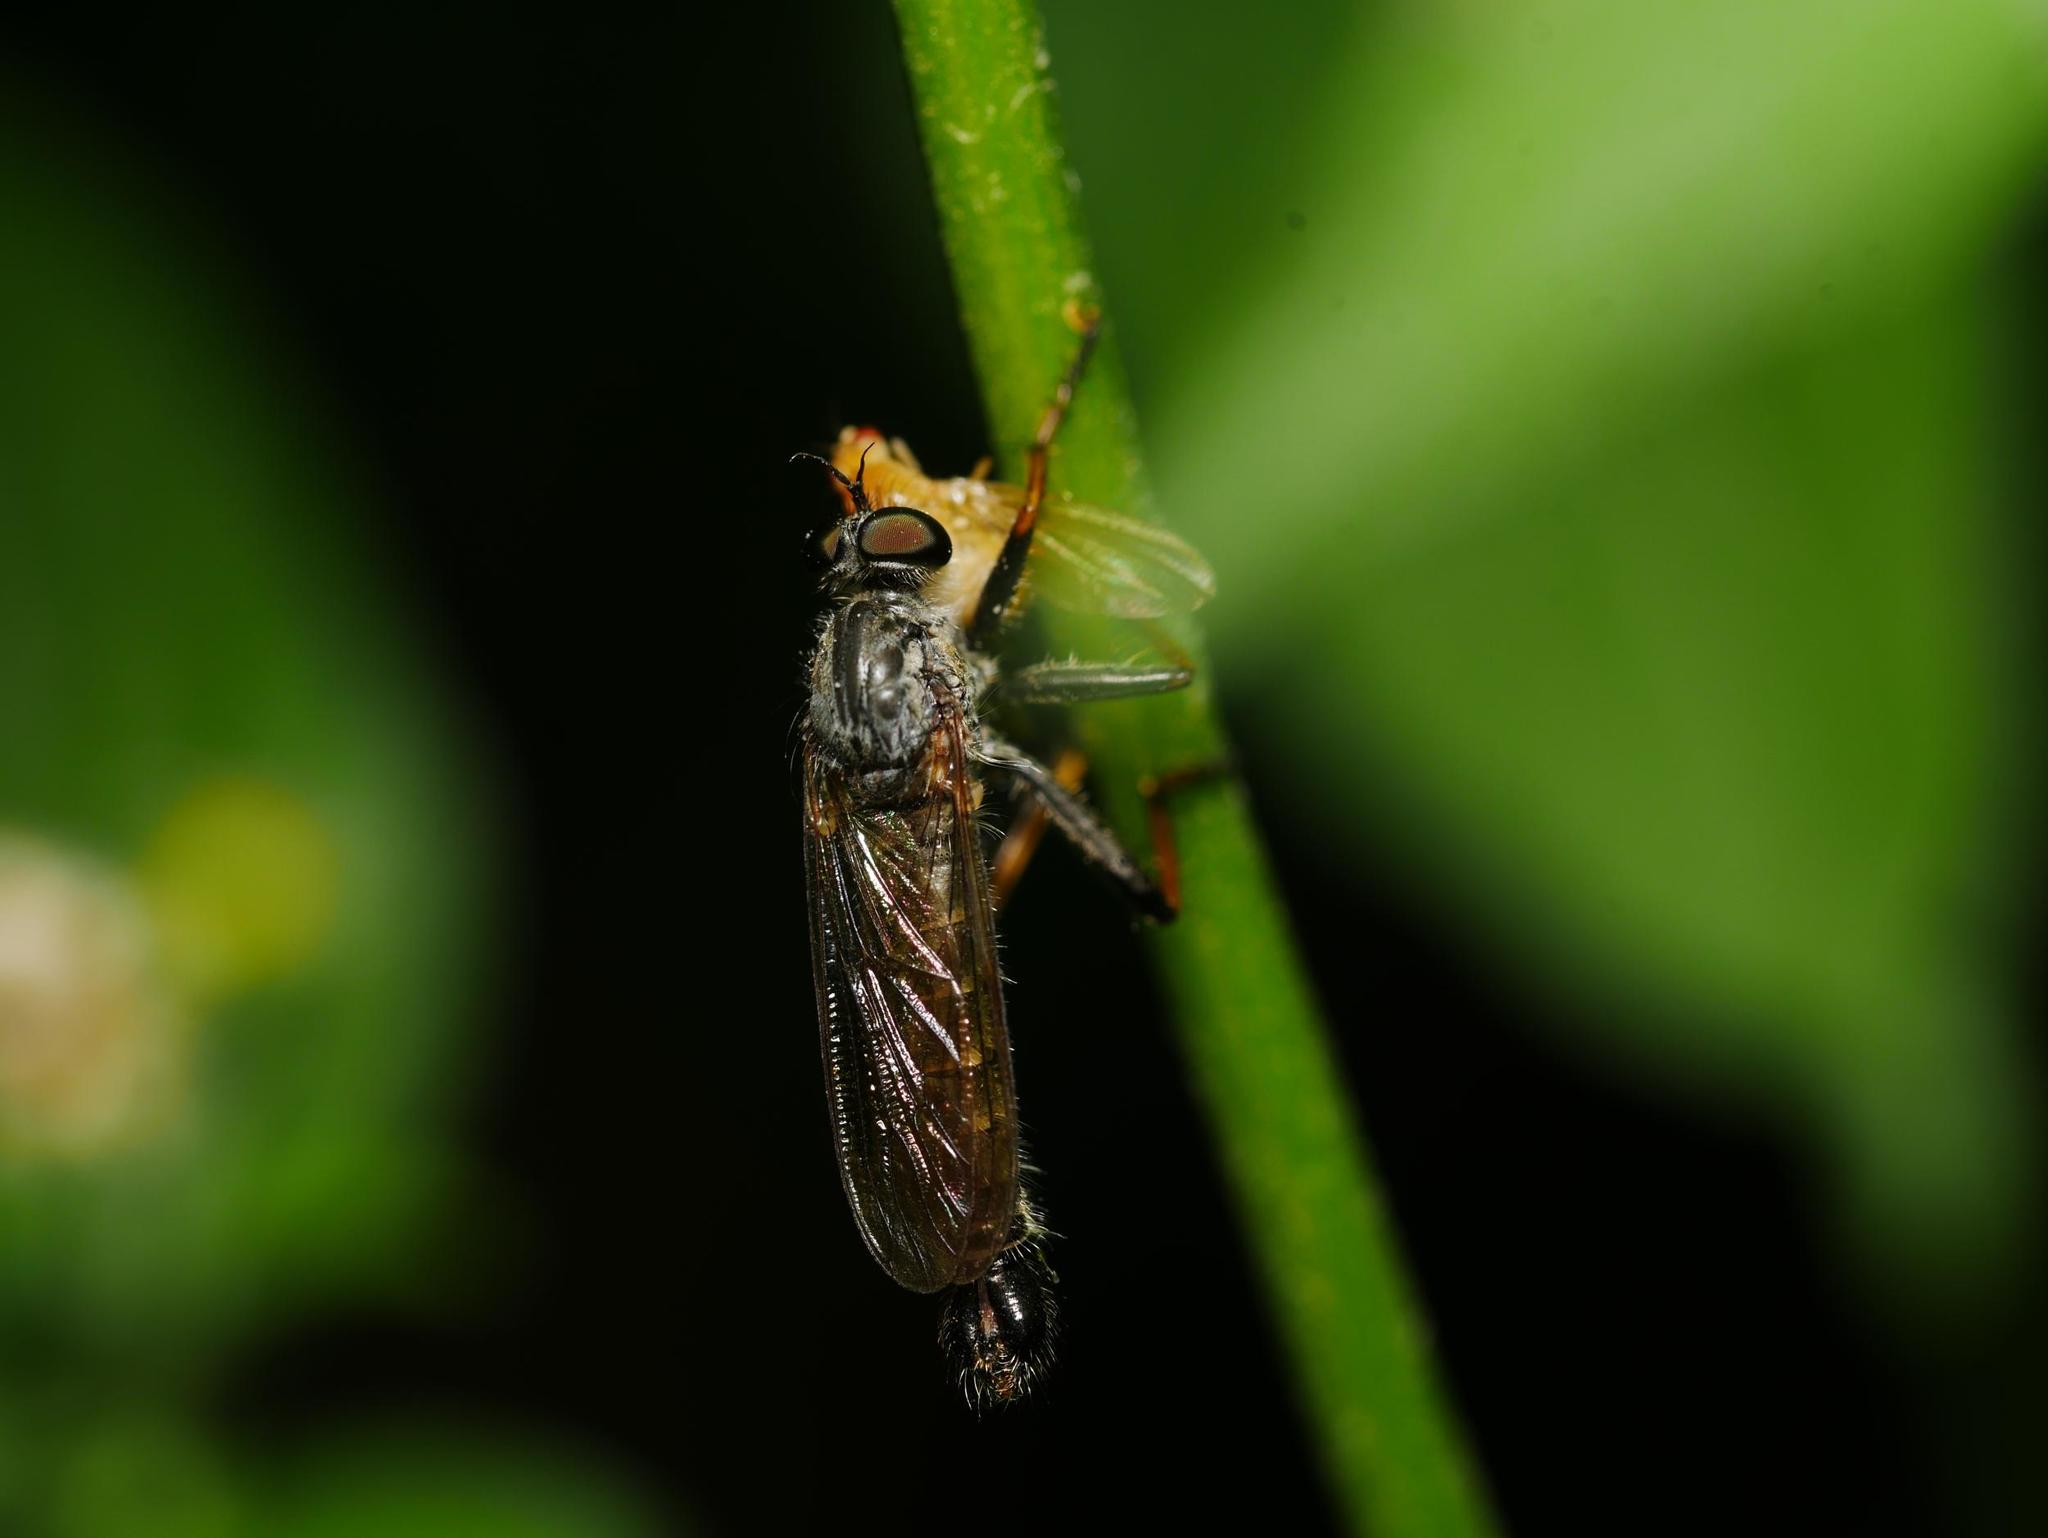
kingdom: Animalia
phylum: Arthropoda
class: Insecta
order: Diptera
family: Asilidae
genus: Paritamus
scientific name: Paritamus geniculatus
